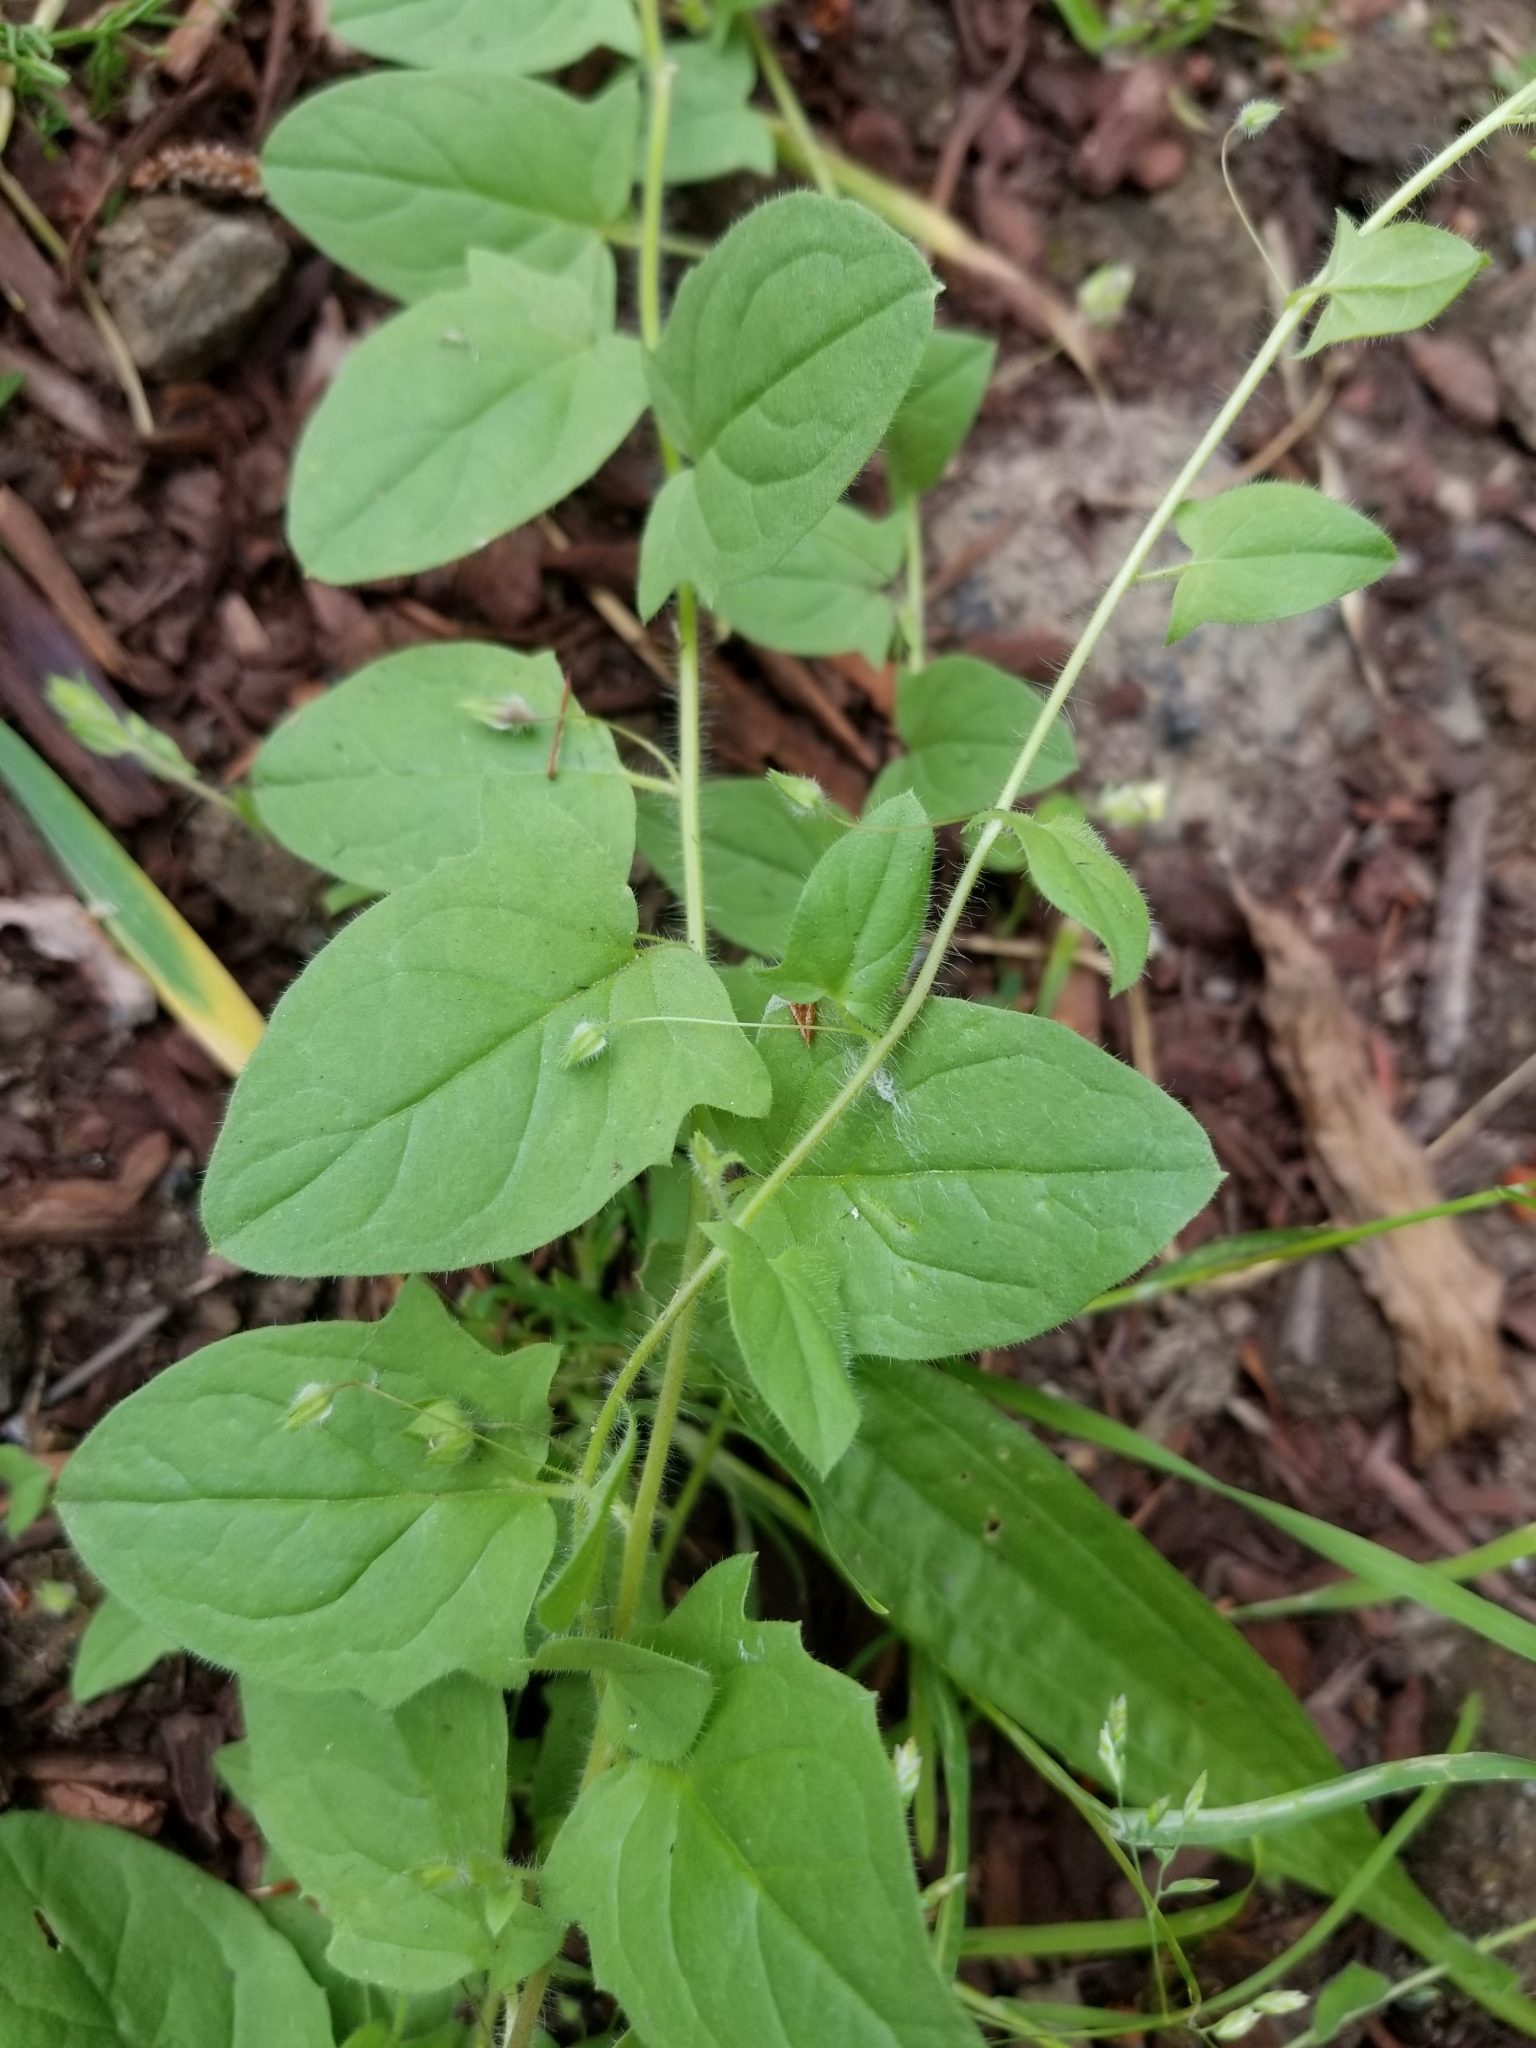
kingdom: Plantae
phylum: Tracheophyta
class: Magnoliopsida
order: Lamiales
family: Plantaginaceae
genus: Kickxia
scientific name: Kickxia elatine
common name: Sharp-leaved fluellen
